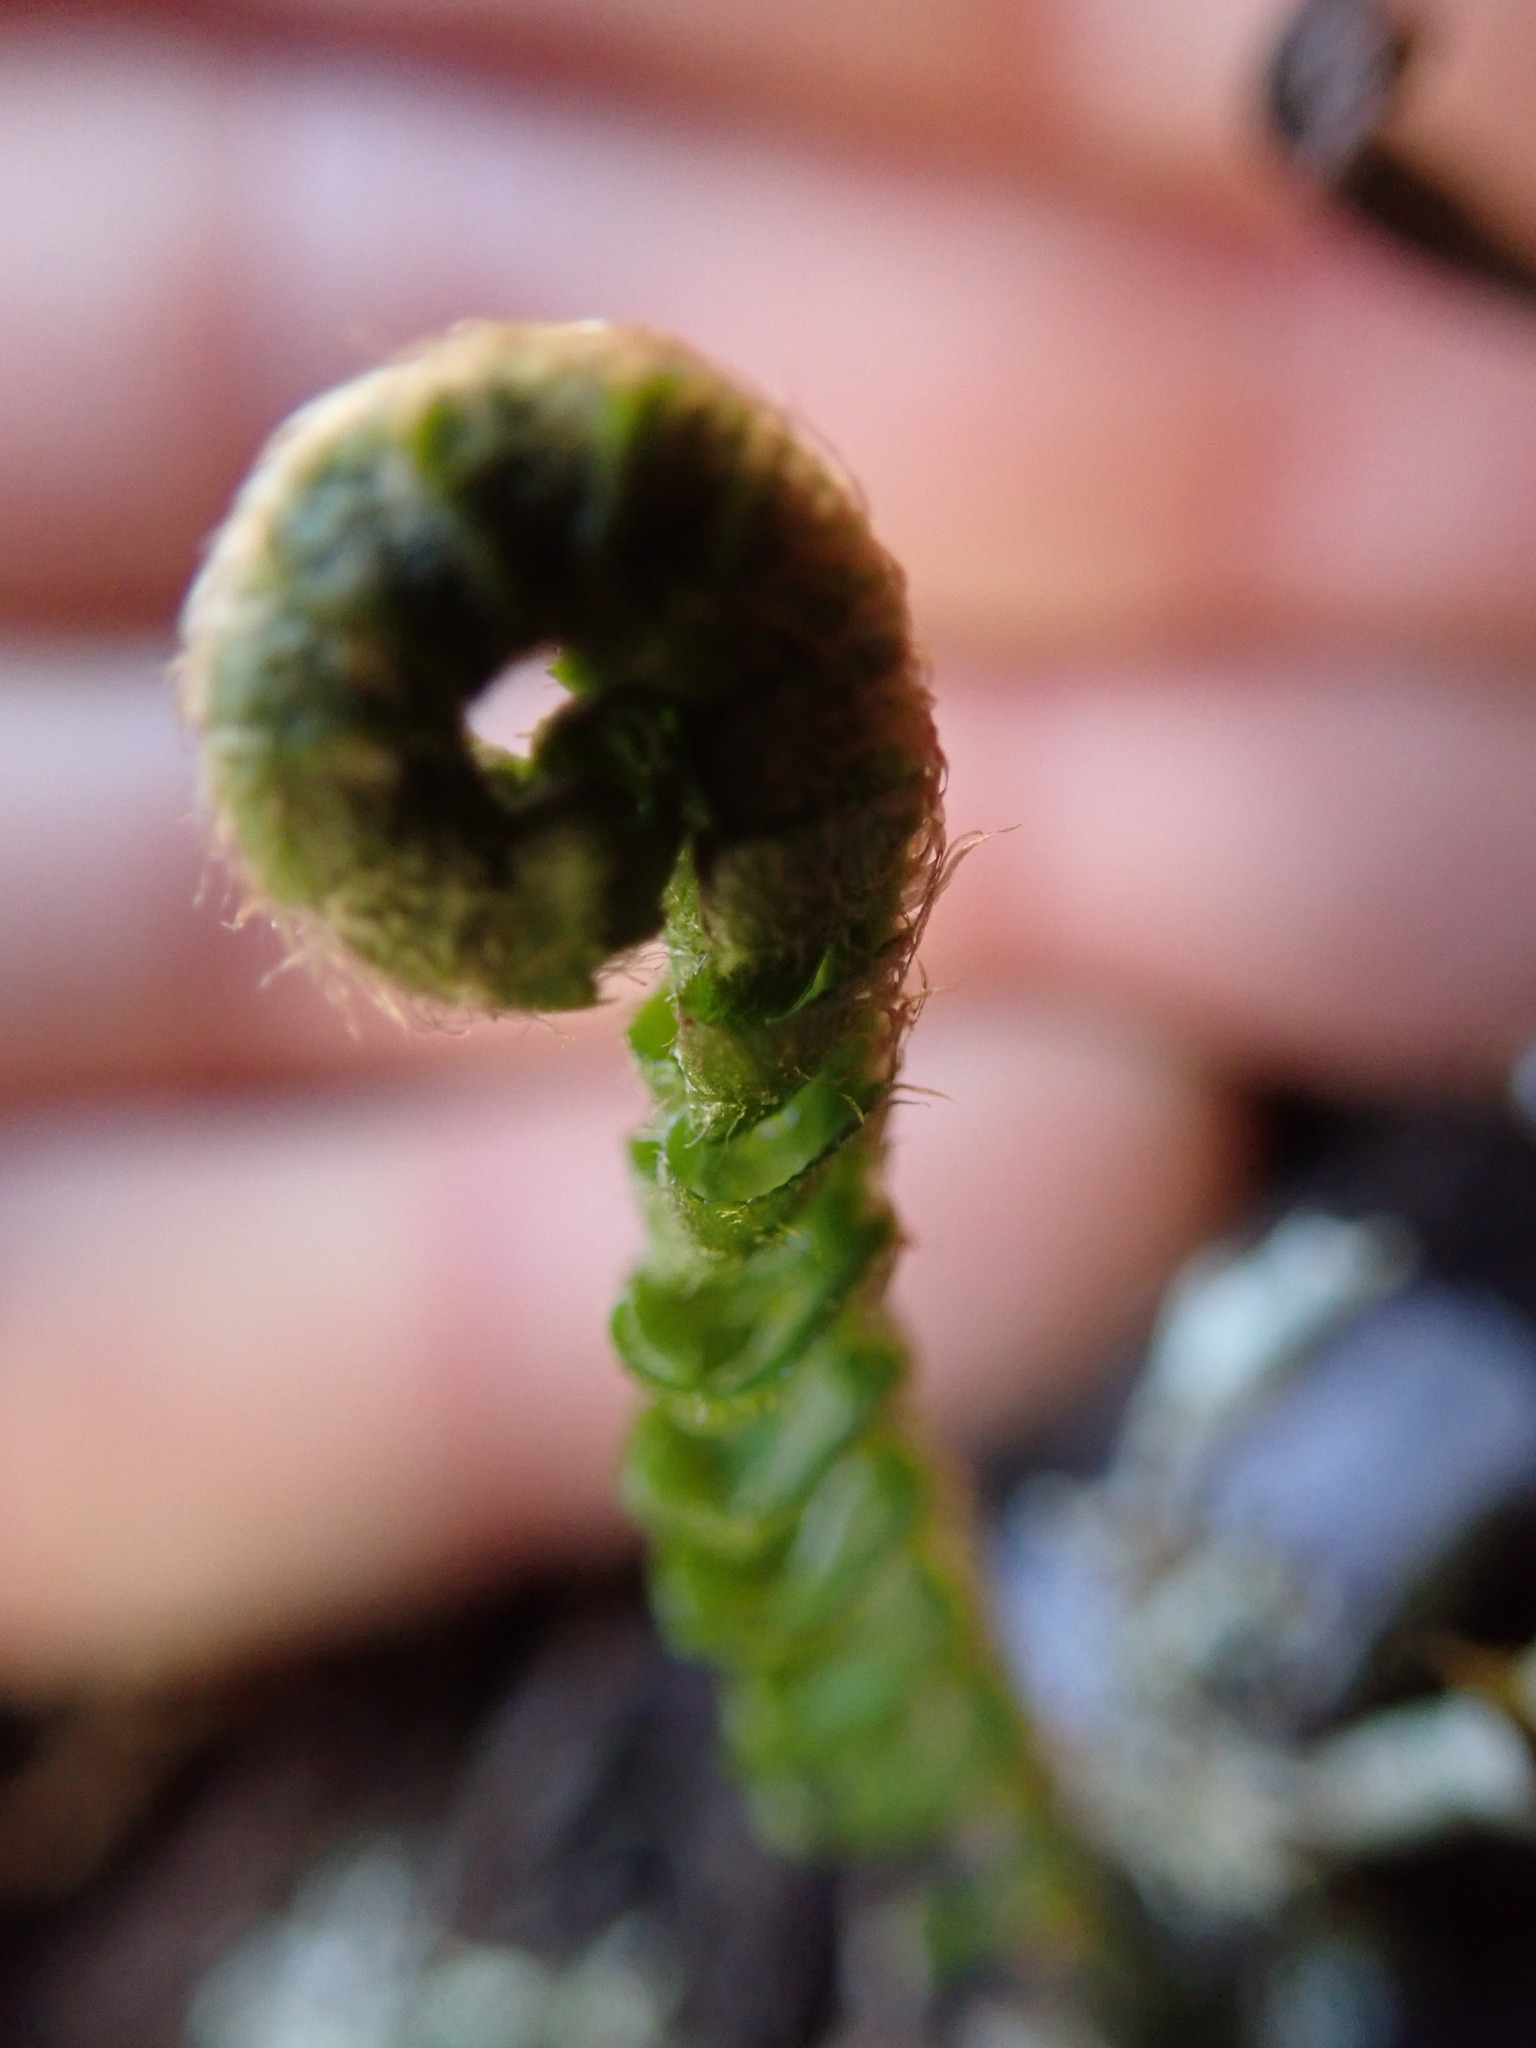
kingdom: Plantae
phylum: Tracheophyta
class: Polypodiopsida
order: Polypodiales
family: Dryopteridaceae
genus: Polystichum
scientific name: Polystichum imbricans
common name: Dwarf western sword fern
